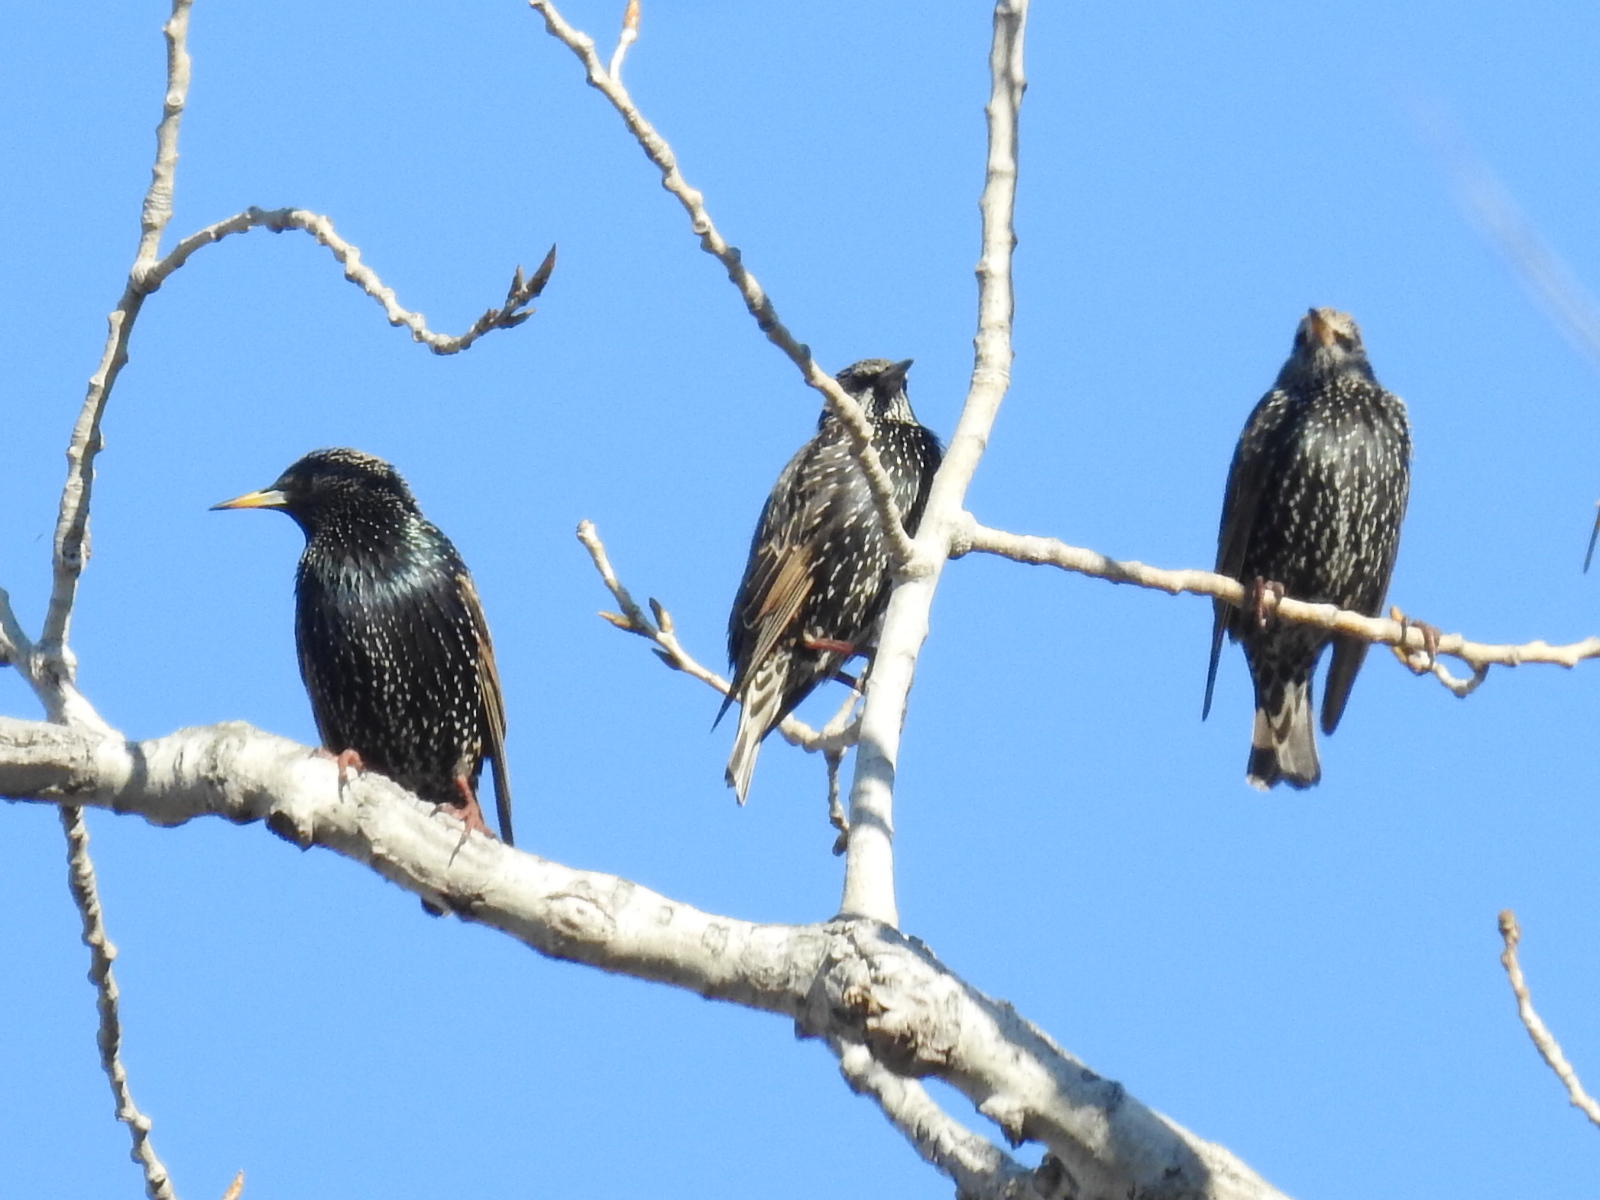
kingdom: Animalia
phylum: Chordata
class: Aves
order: Passeriformes
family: Sturnidae
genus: Sturnus
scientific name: Sturnus vulgaris
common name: Common starling
